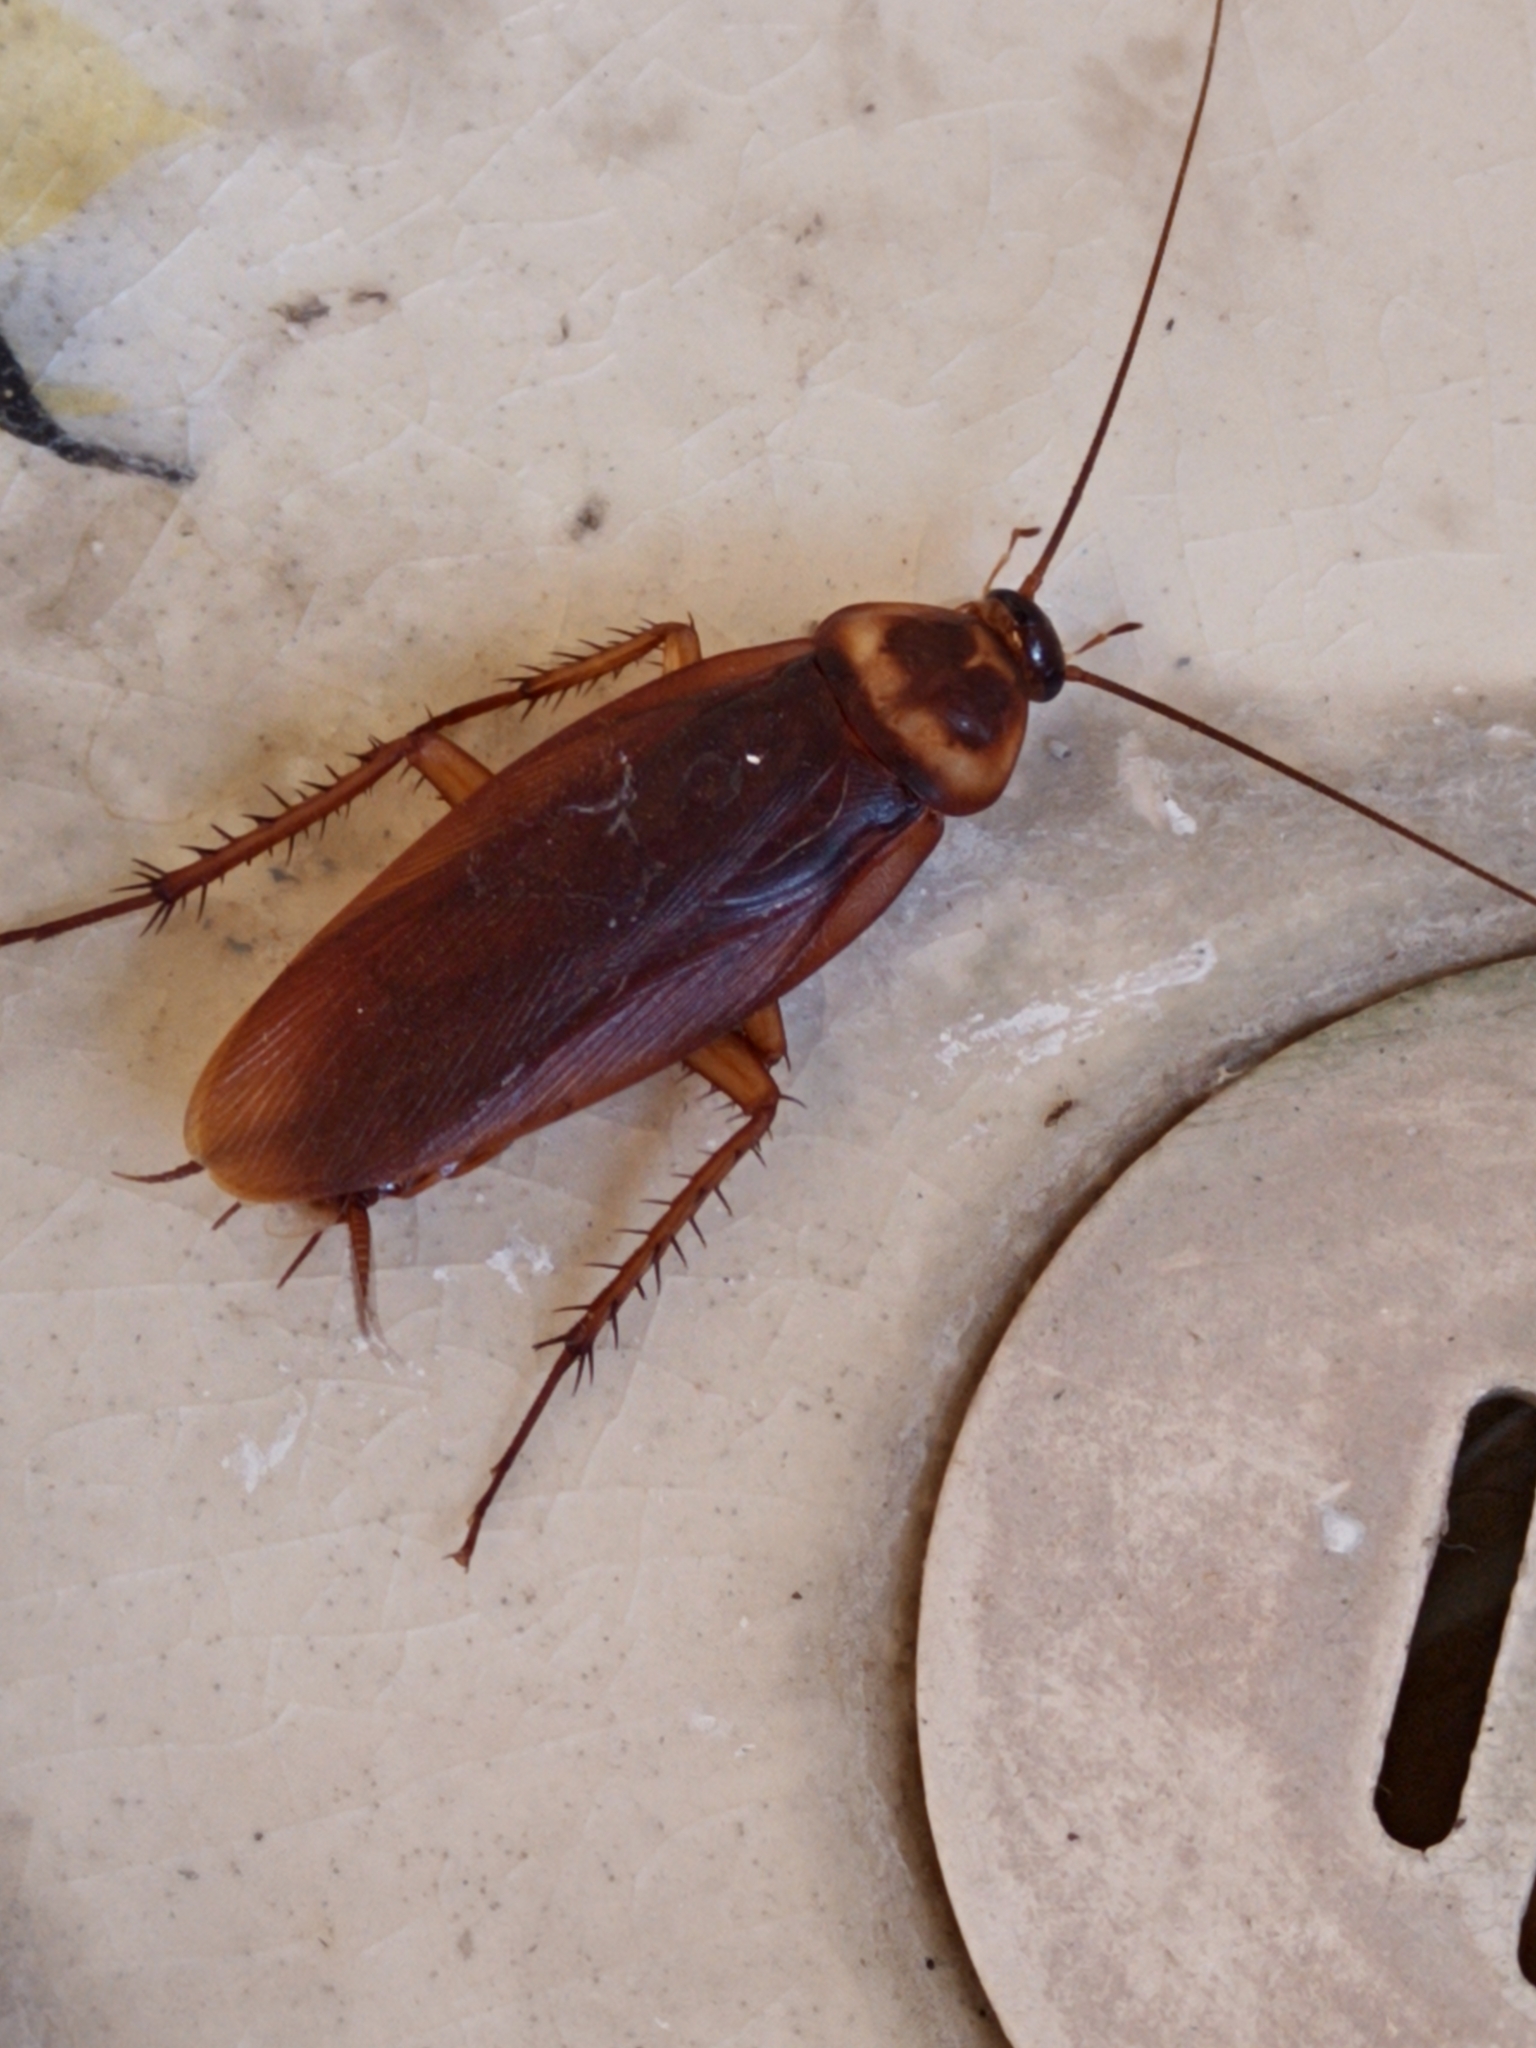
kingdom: Animalia
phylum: Arthropoda
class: Insecta
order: Blattodea
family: Blattidae
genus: Periplaneta
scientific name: Periplaneta americana
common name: American cockroach
